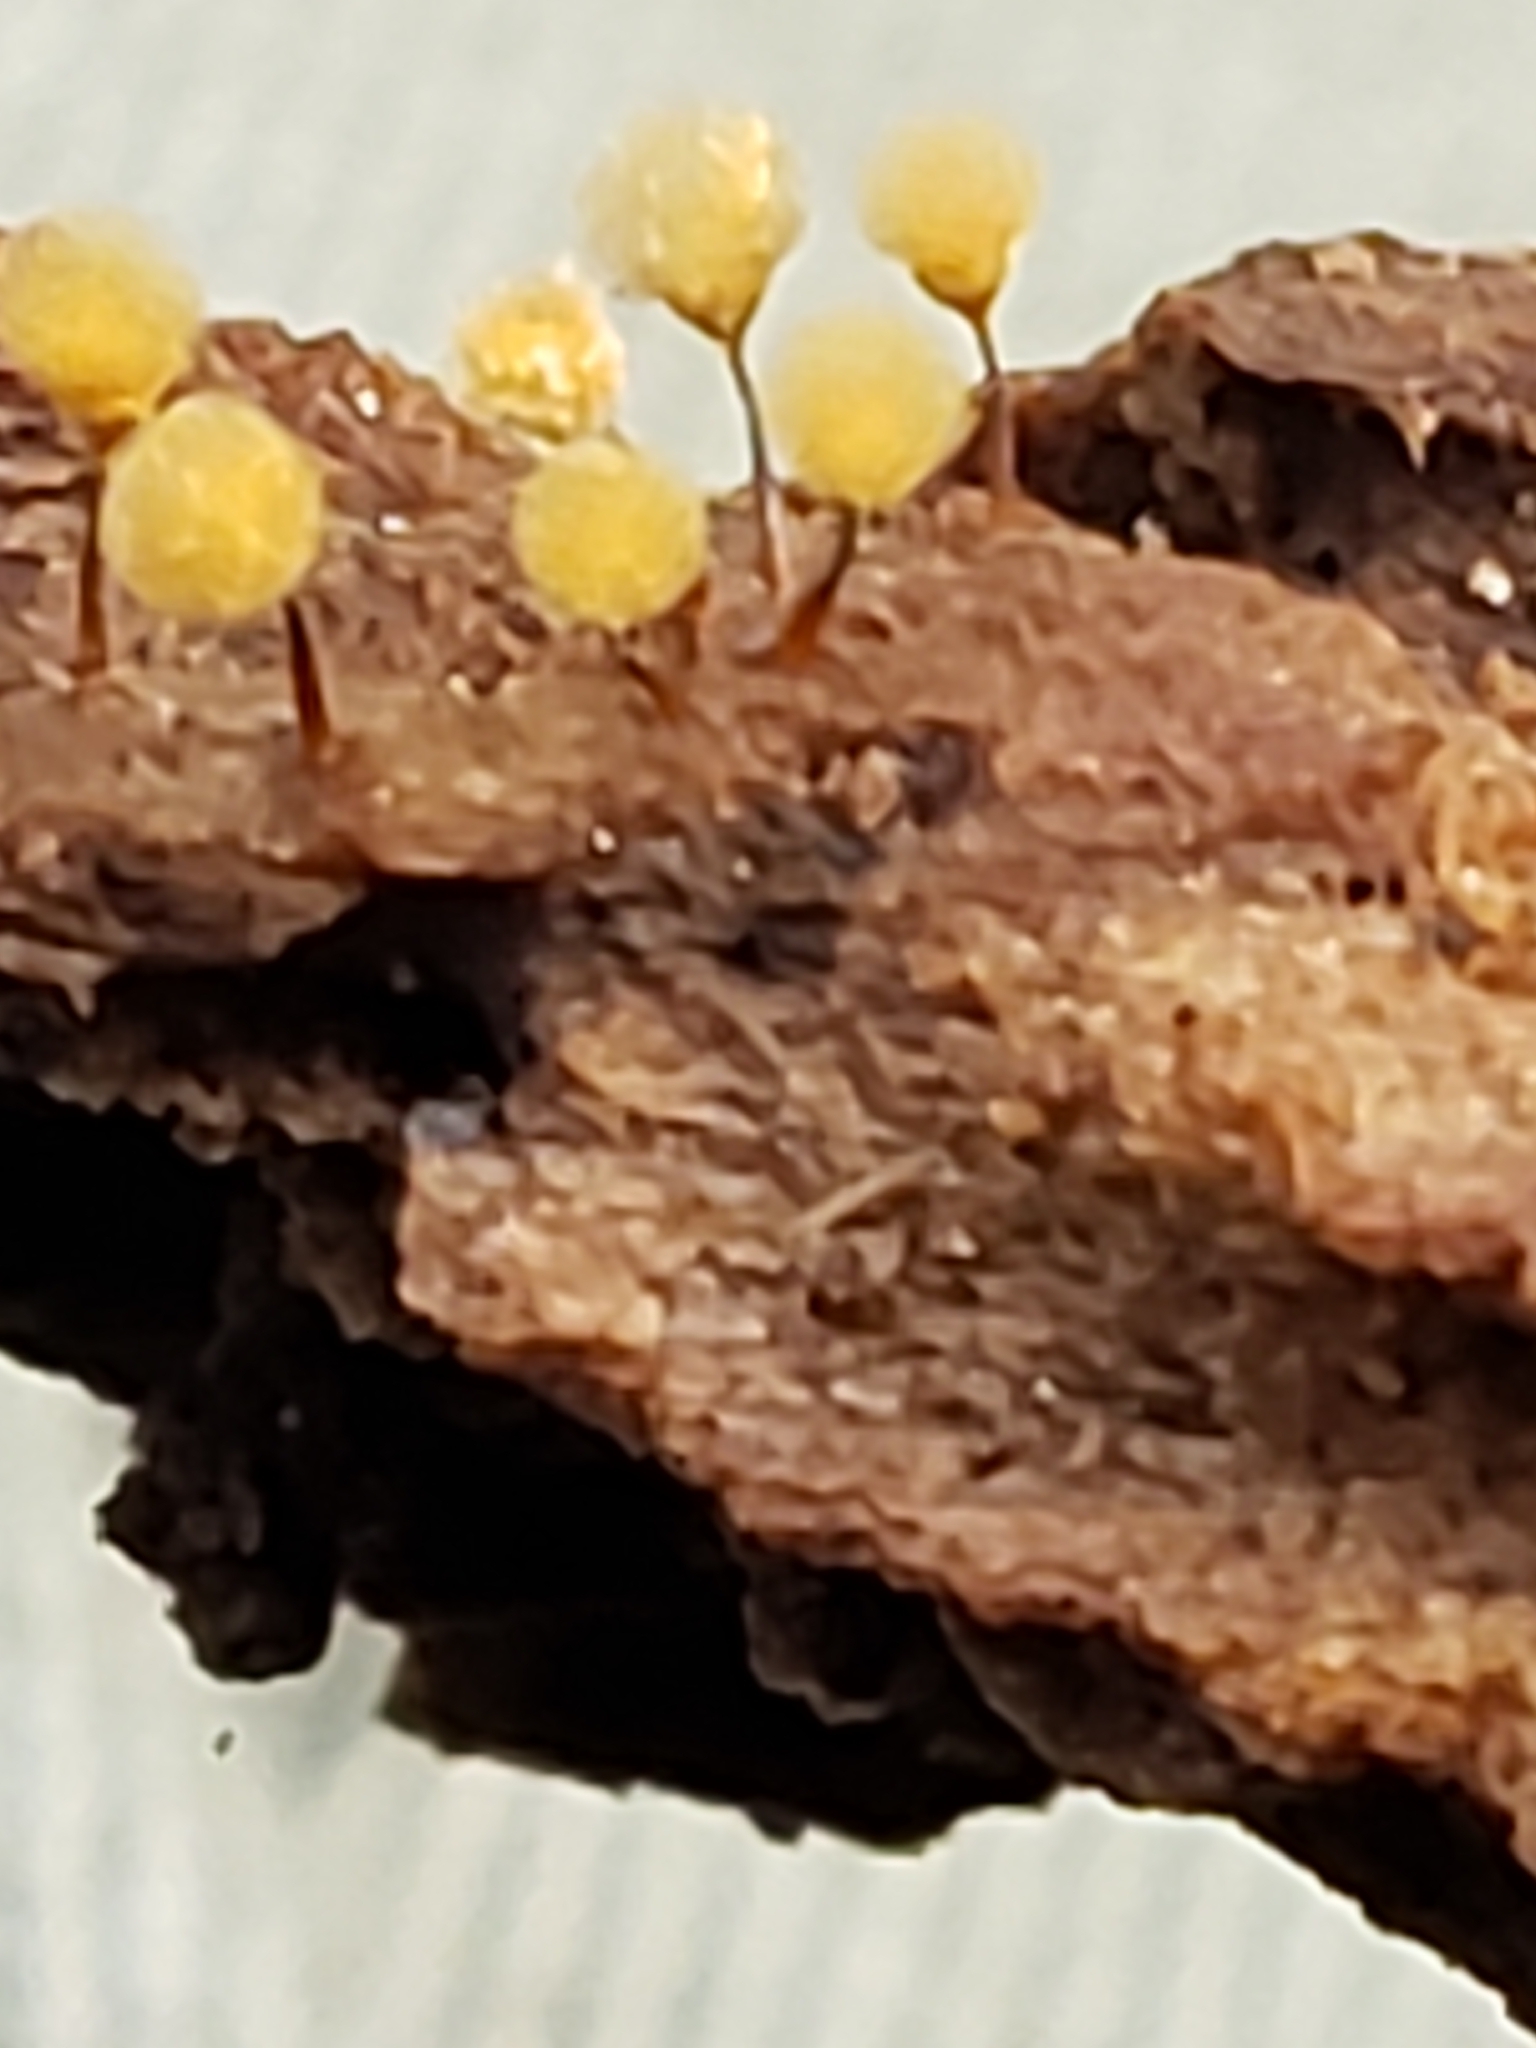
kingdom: Protozoa
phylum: Mycetozoa
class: Myxomycetes
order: Trichiales
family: Arcyriaceae
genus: Hemitrichia
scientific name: Hemitrichia calyculata
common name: Push pin slime mold
